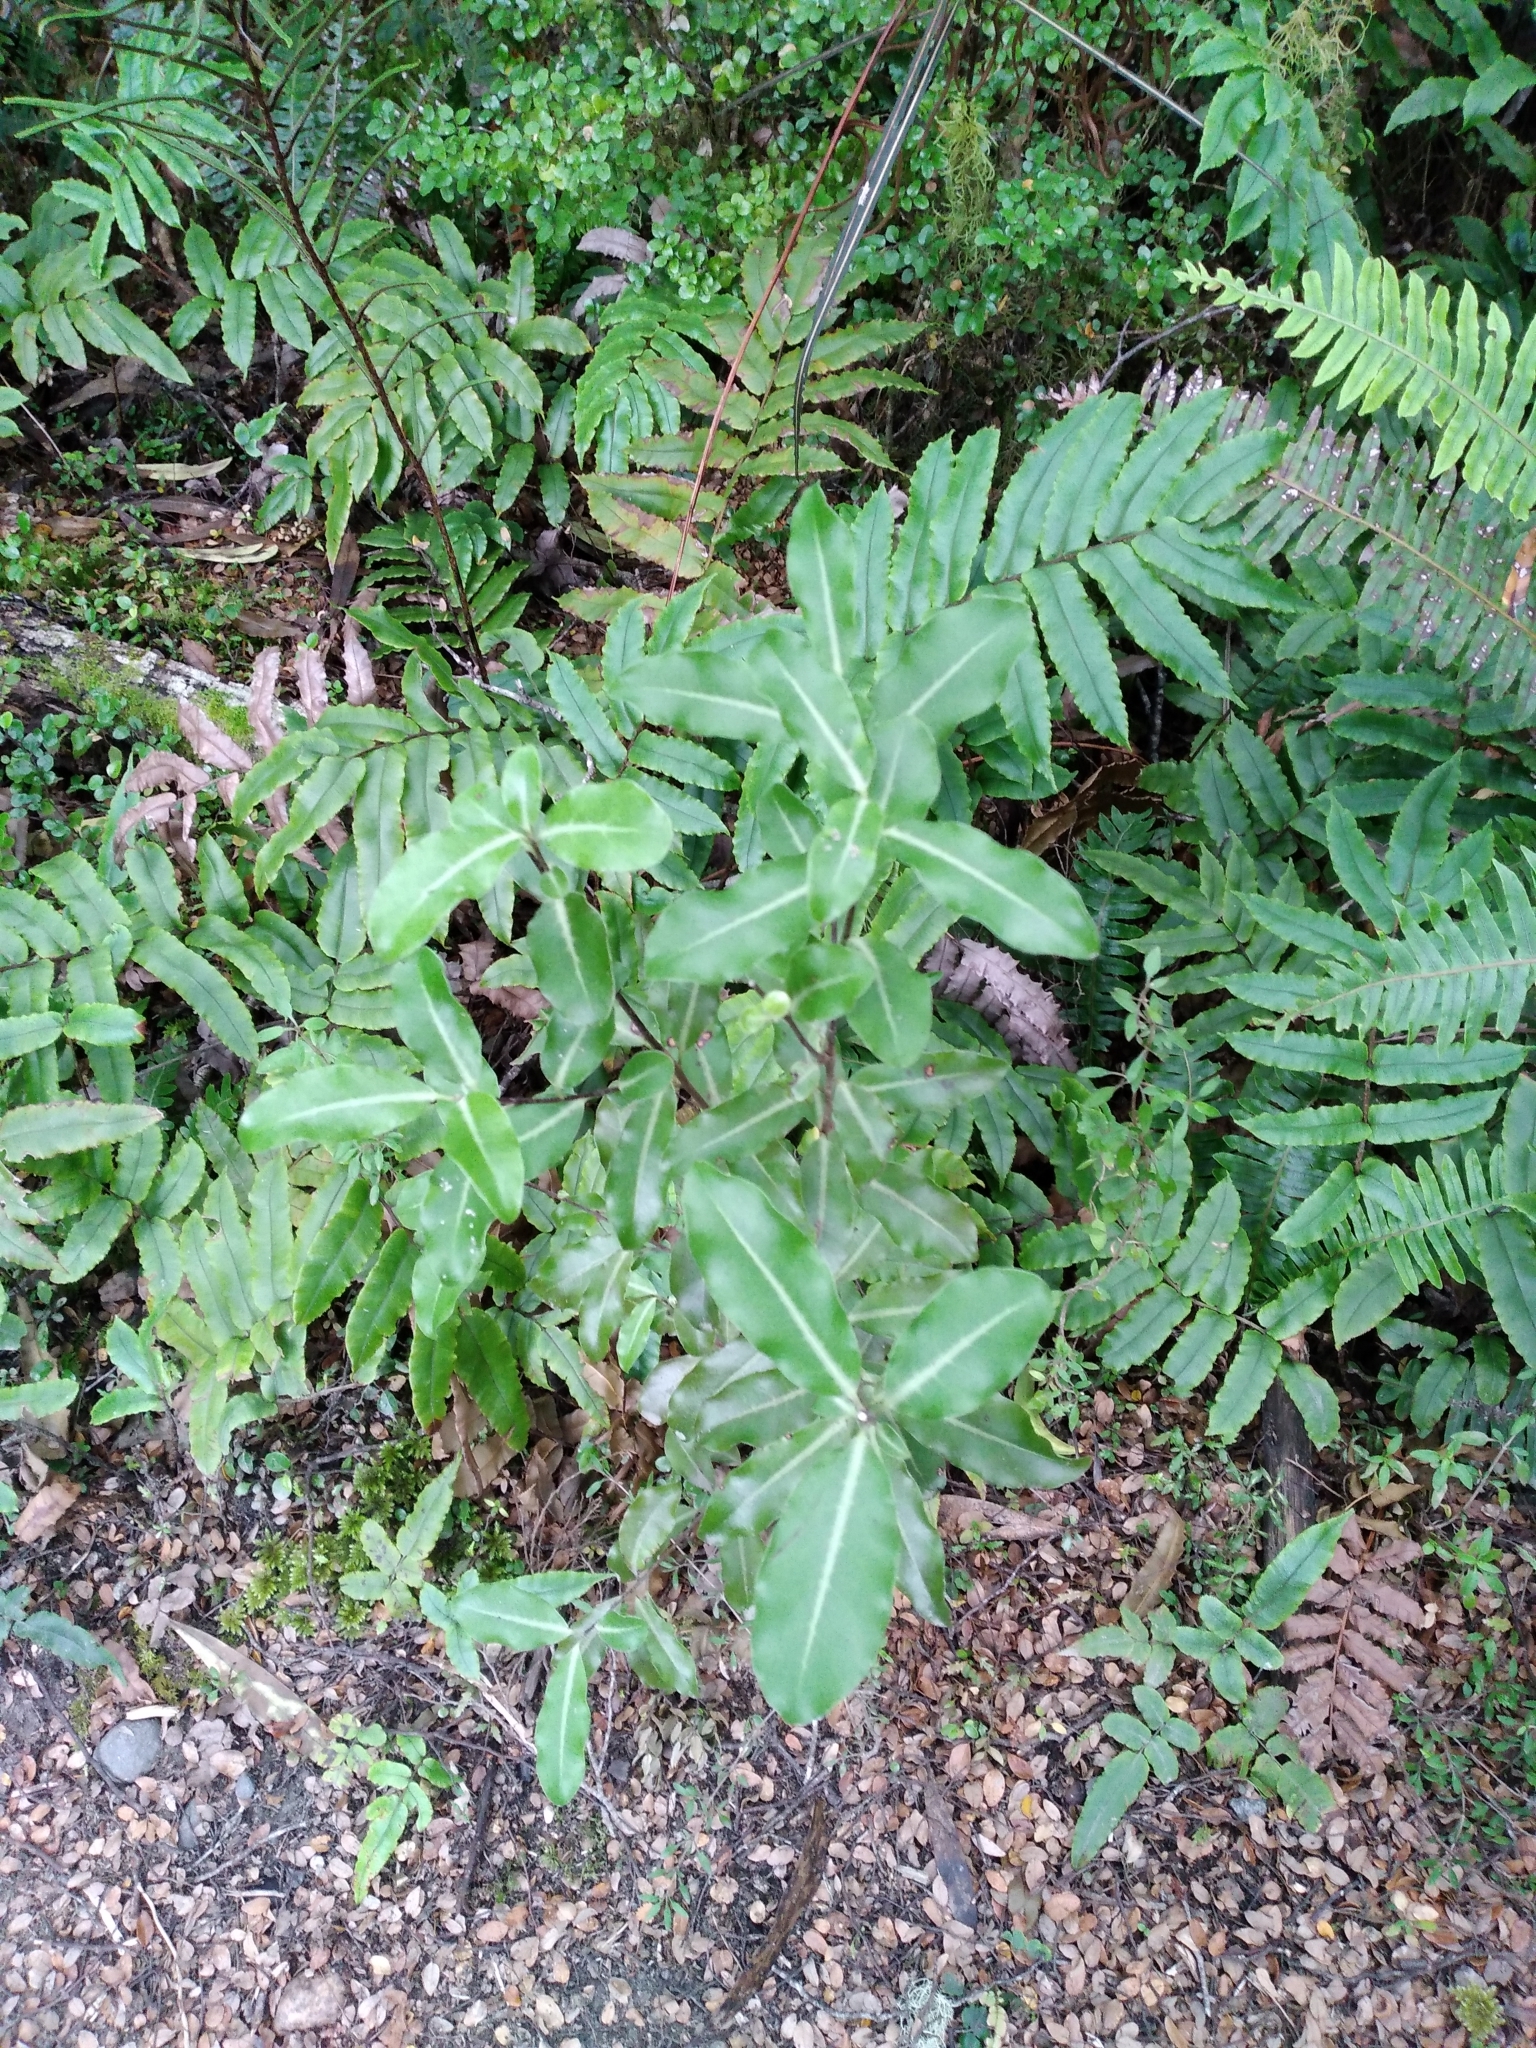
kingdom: Plantae
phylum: Tracheophyta
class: Magnoliopsida
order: Apiales
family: Pittosporaceae
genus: Pittosporum
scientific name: Pittosporum colensoi
